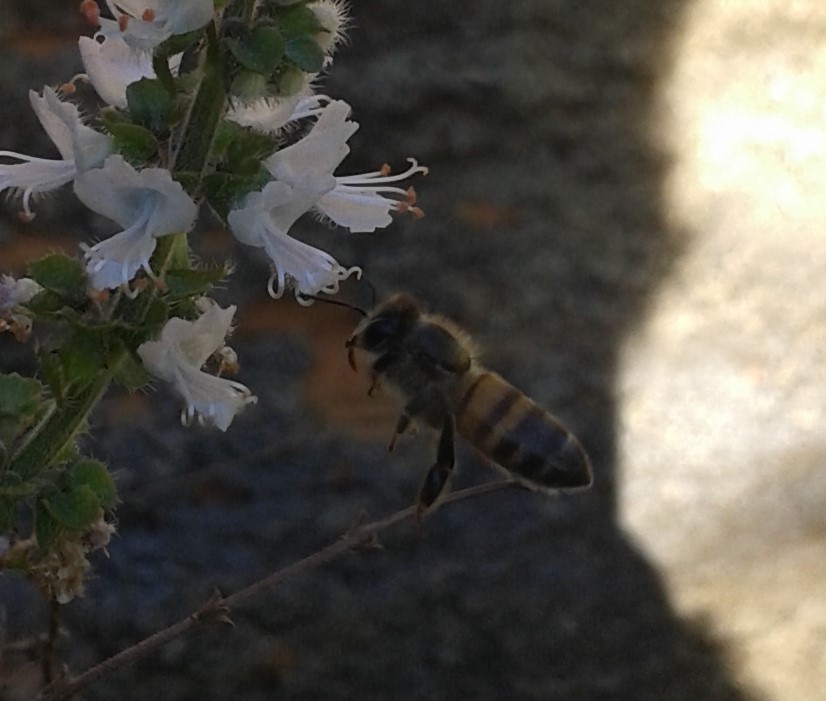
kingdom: Animalia
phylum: Arthropoda
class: Insecta
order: Hymenoptera
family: Apidae
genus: Apis
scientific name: Apis mellifera
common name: Honey bee
